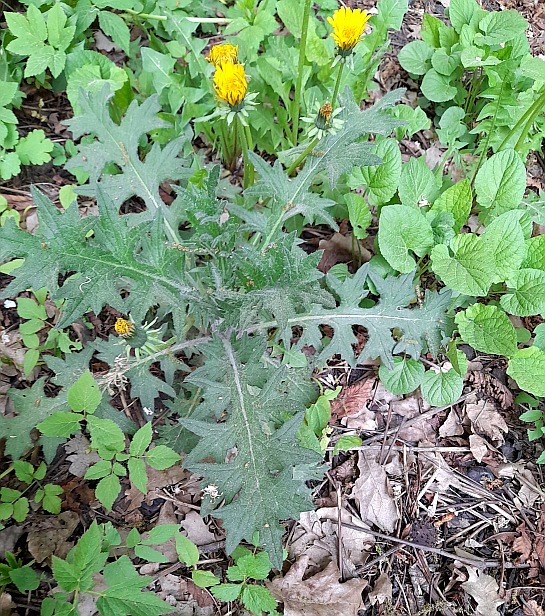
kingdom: Plantae
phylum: Tracheophyta
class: Magnoliopsida
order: Asterales
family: Asteraceae
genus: Cirsium
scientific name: Cirsium vulgare
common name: Bull thistle
